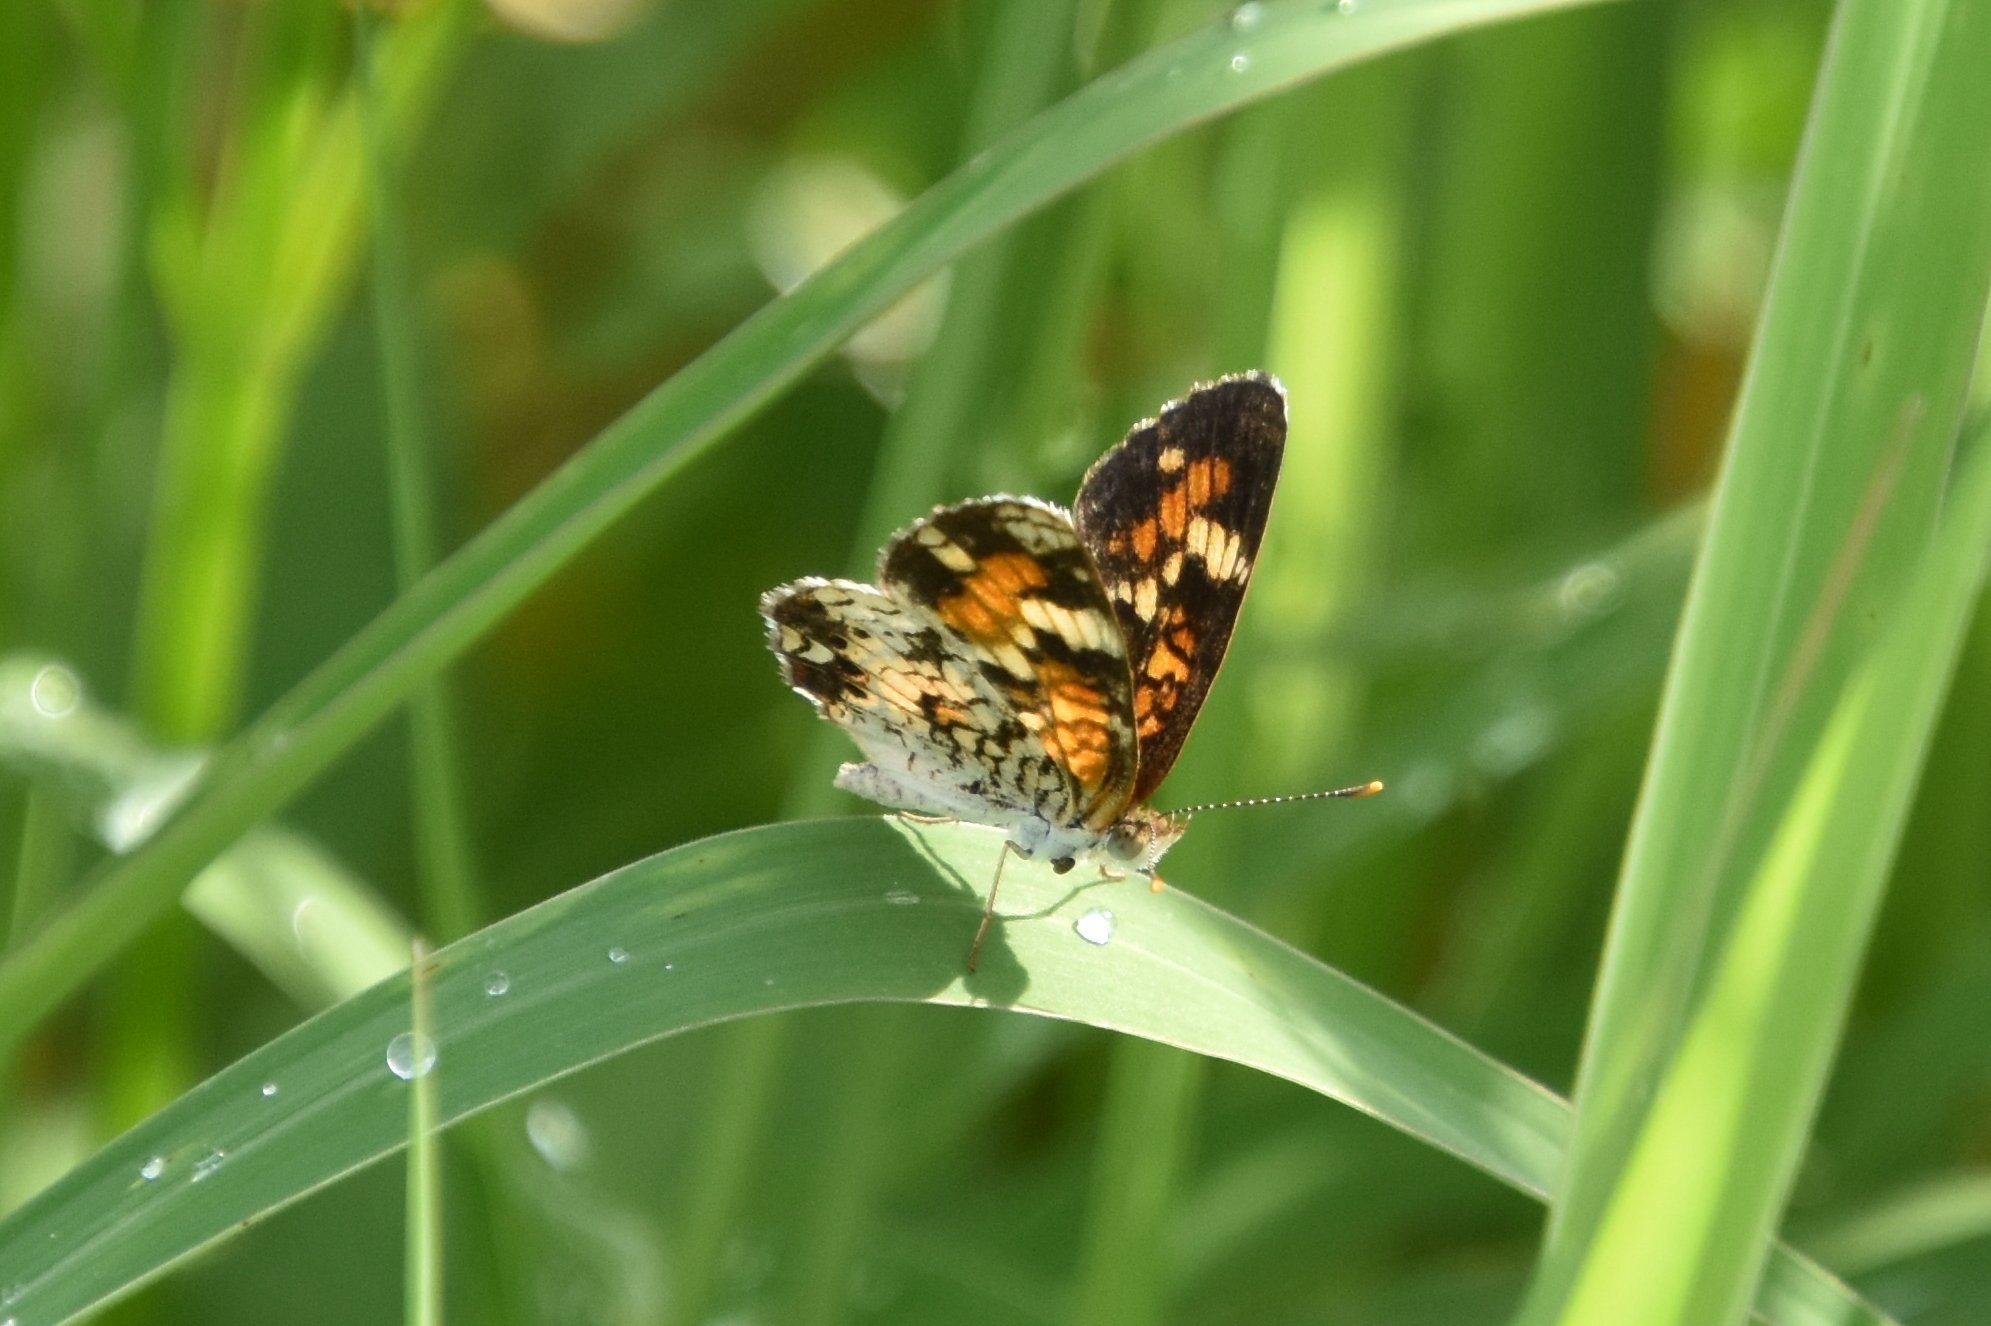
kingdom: Animalia
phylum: Arthropoda
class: Insecta
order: Lepidoptera
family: Nymphalidae
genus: Phyciodes
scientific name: Phyciodes phaon
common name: Phaon crescent
